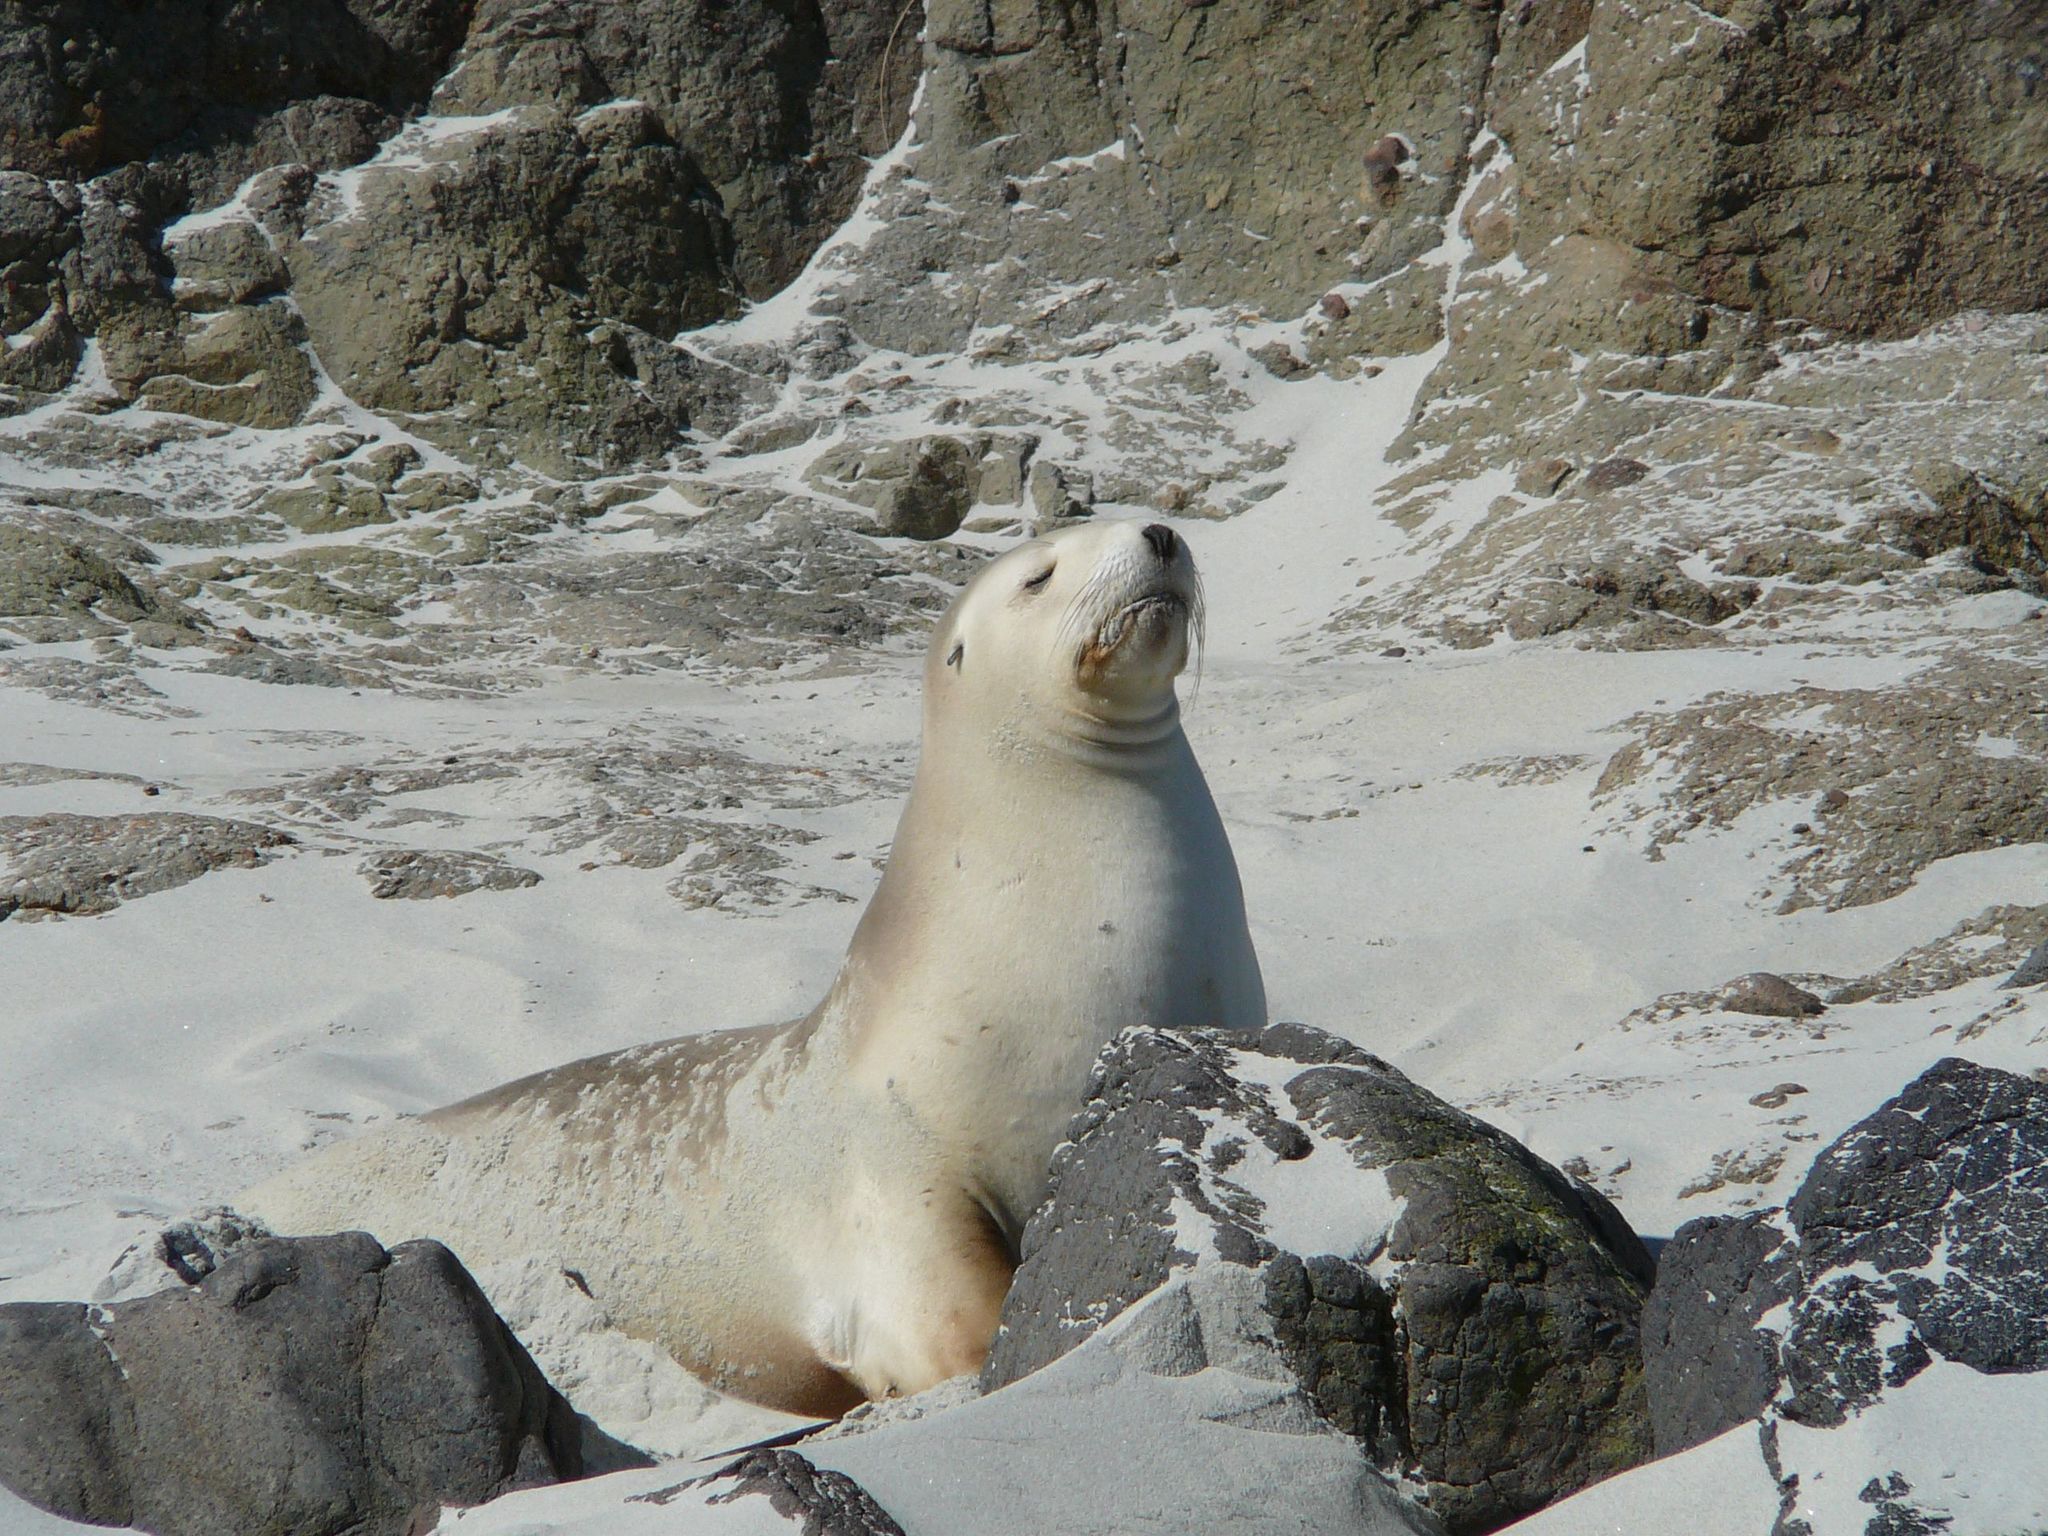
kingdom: Animalia
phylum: Chordata
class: Mammalia
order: Carnivora
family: Otariidae
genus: Phocarctos
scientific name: Phocarctos hookeri
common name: New zealand sea lion
